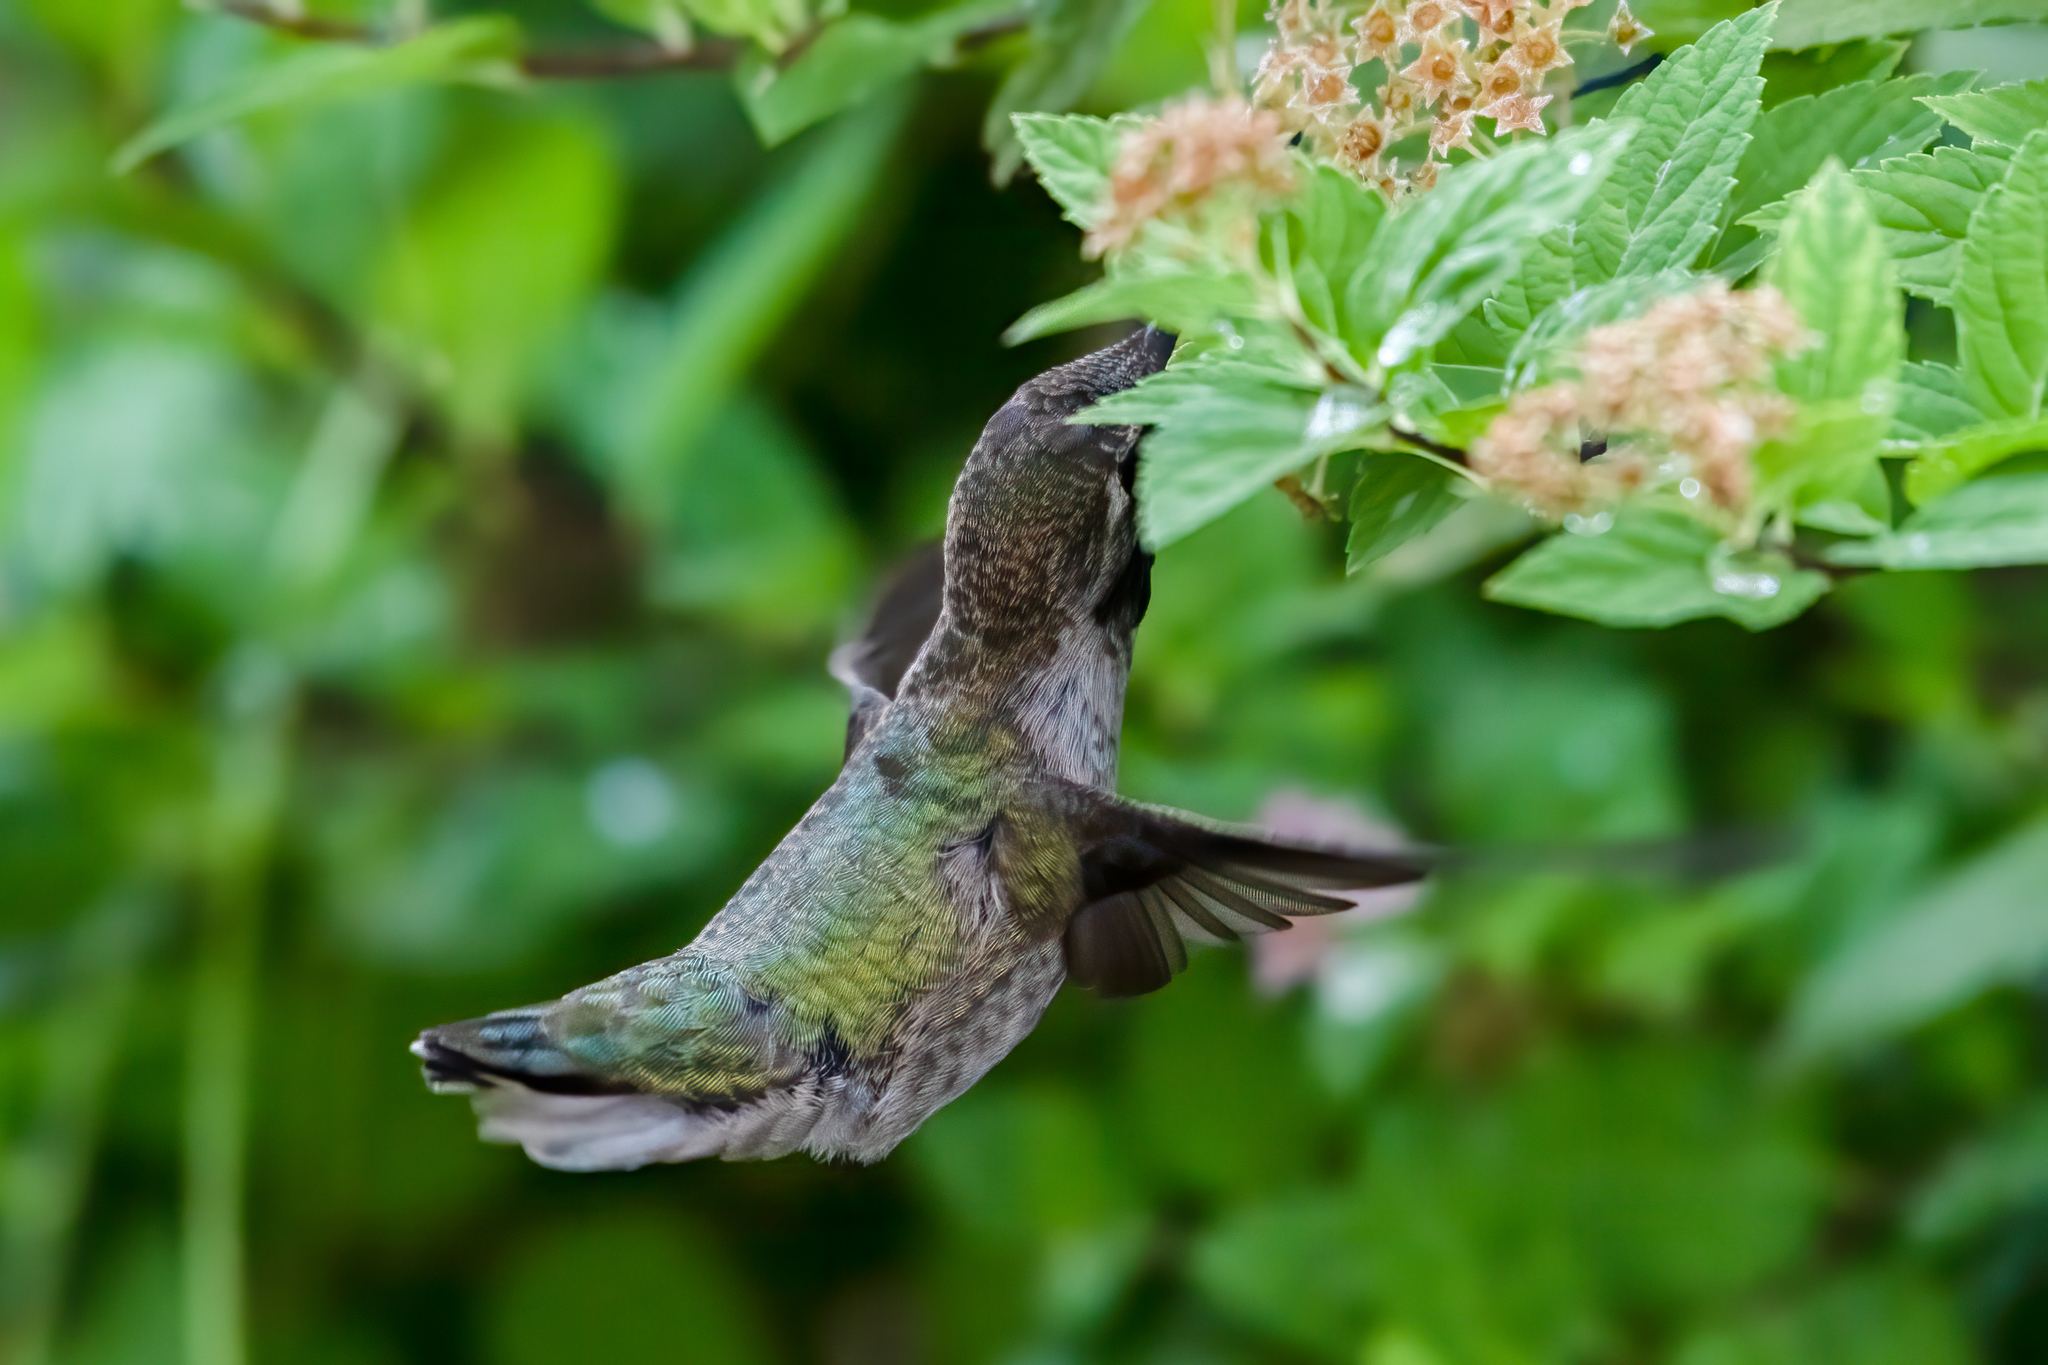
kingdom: Animalia
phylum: Chordata
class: Aves
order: Apodiformes
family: Trochilidae
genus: Calypte
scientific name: Calypte anna
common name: Anna's hummingbird
